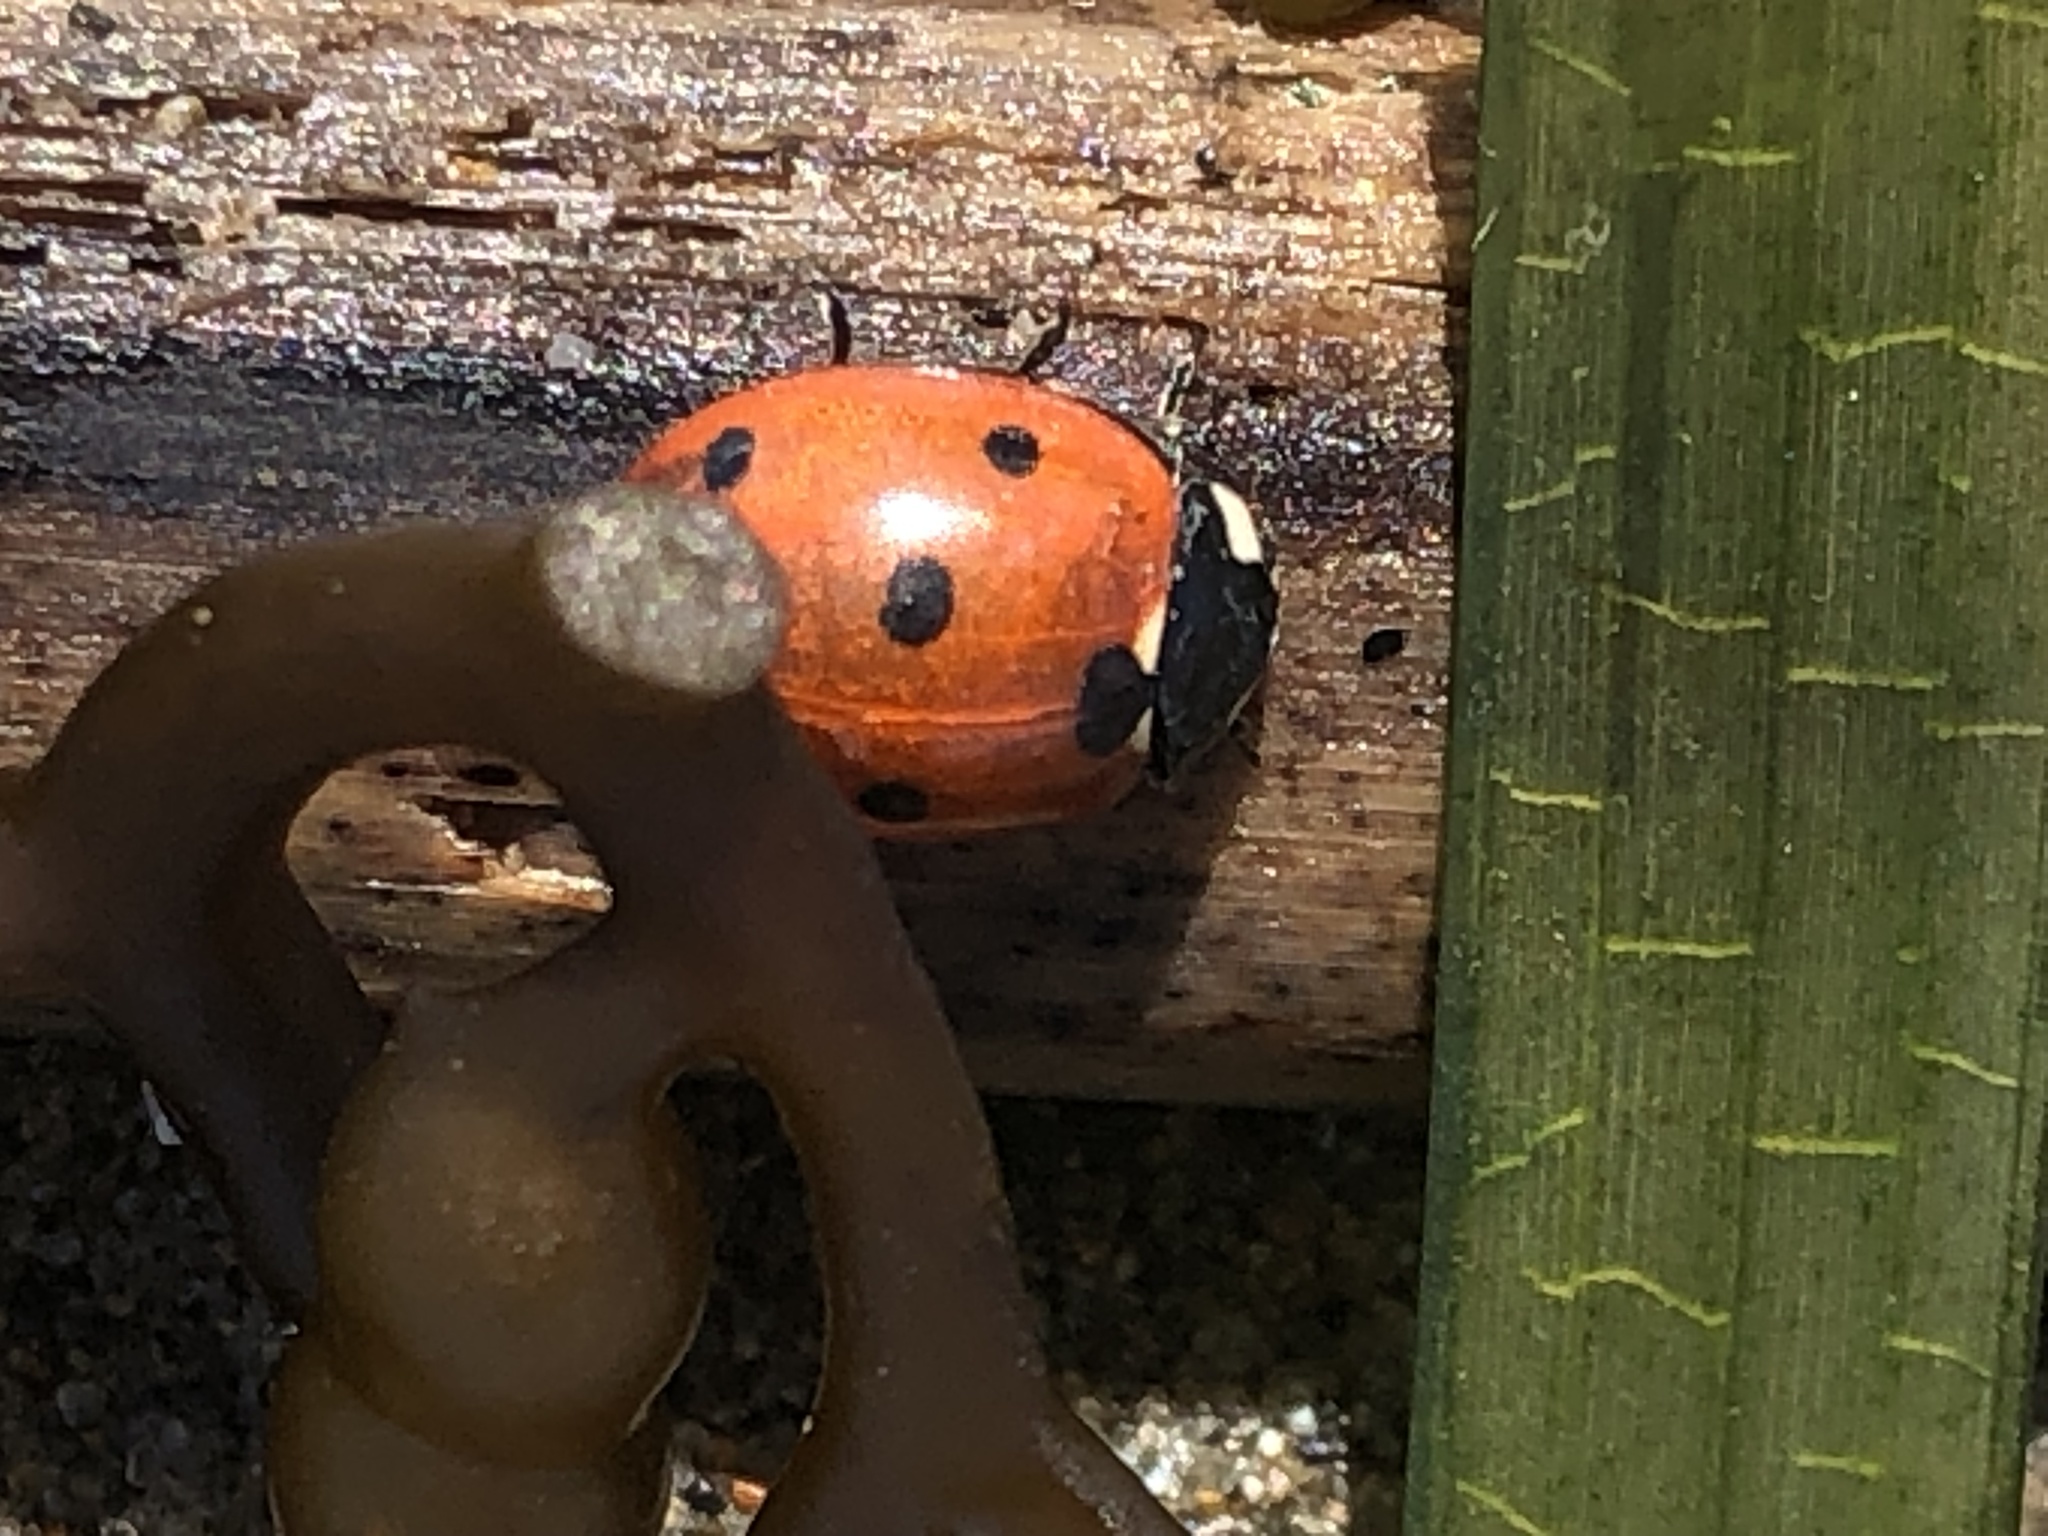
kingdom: Animalia
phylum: Arthropoda
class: Insecta
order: Coleoptera
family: Coccinellidae
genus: Coccinella
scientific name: Coccinella septempunctata
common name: Sevenspotted lady beetle
